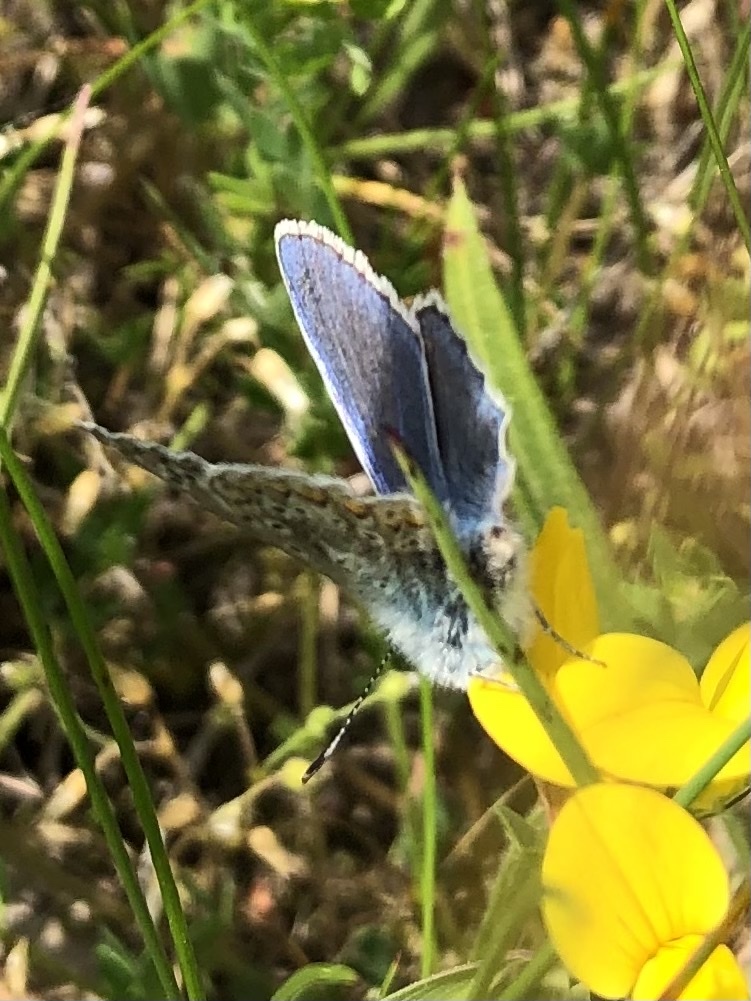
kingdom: Animalia
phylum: Arthropoda
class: Insecta
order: Lepidoptera
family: Lycaenidae
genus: Polyommatus
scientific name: Polyommatus icarus
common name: Common blue
